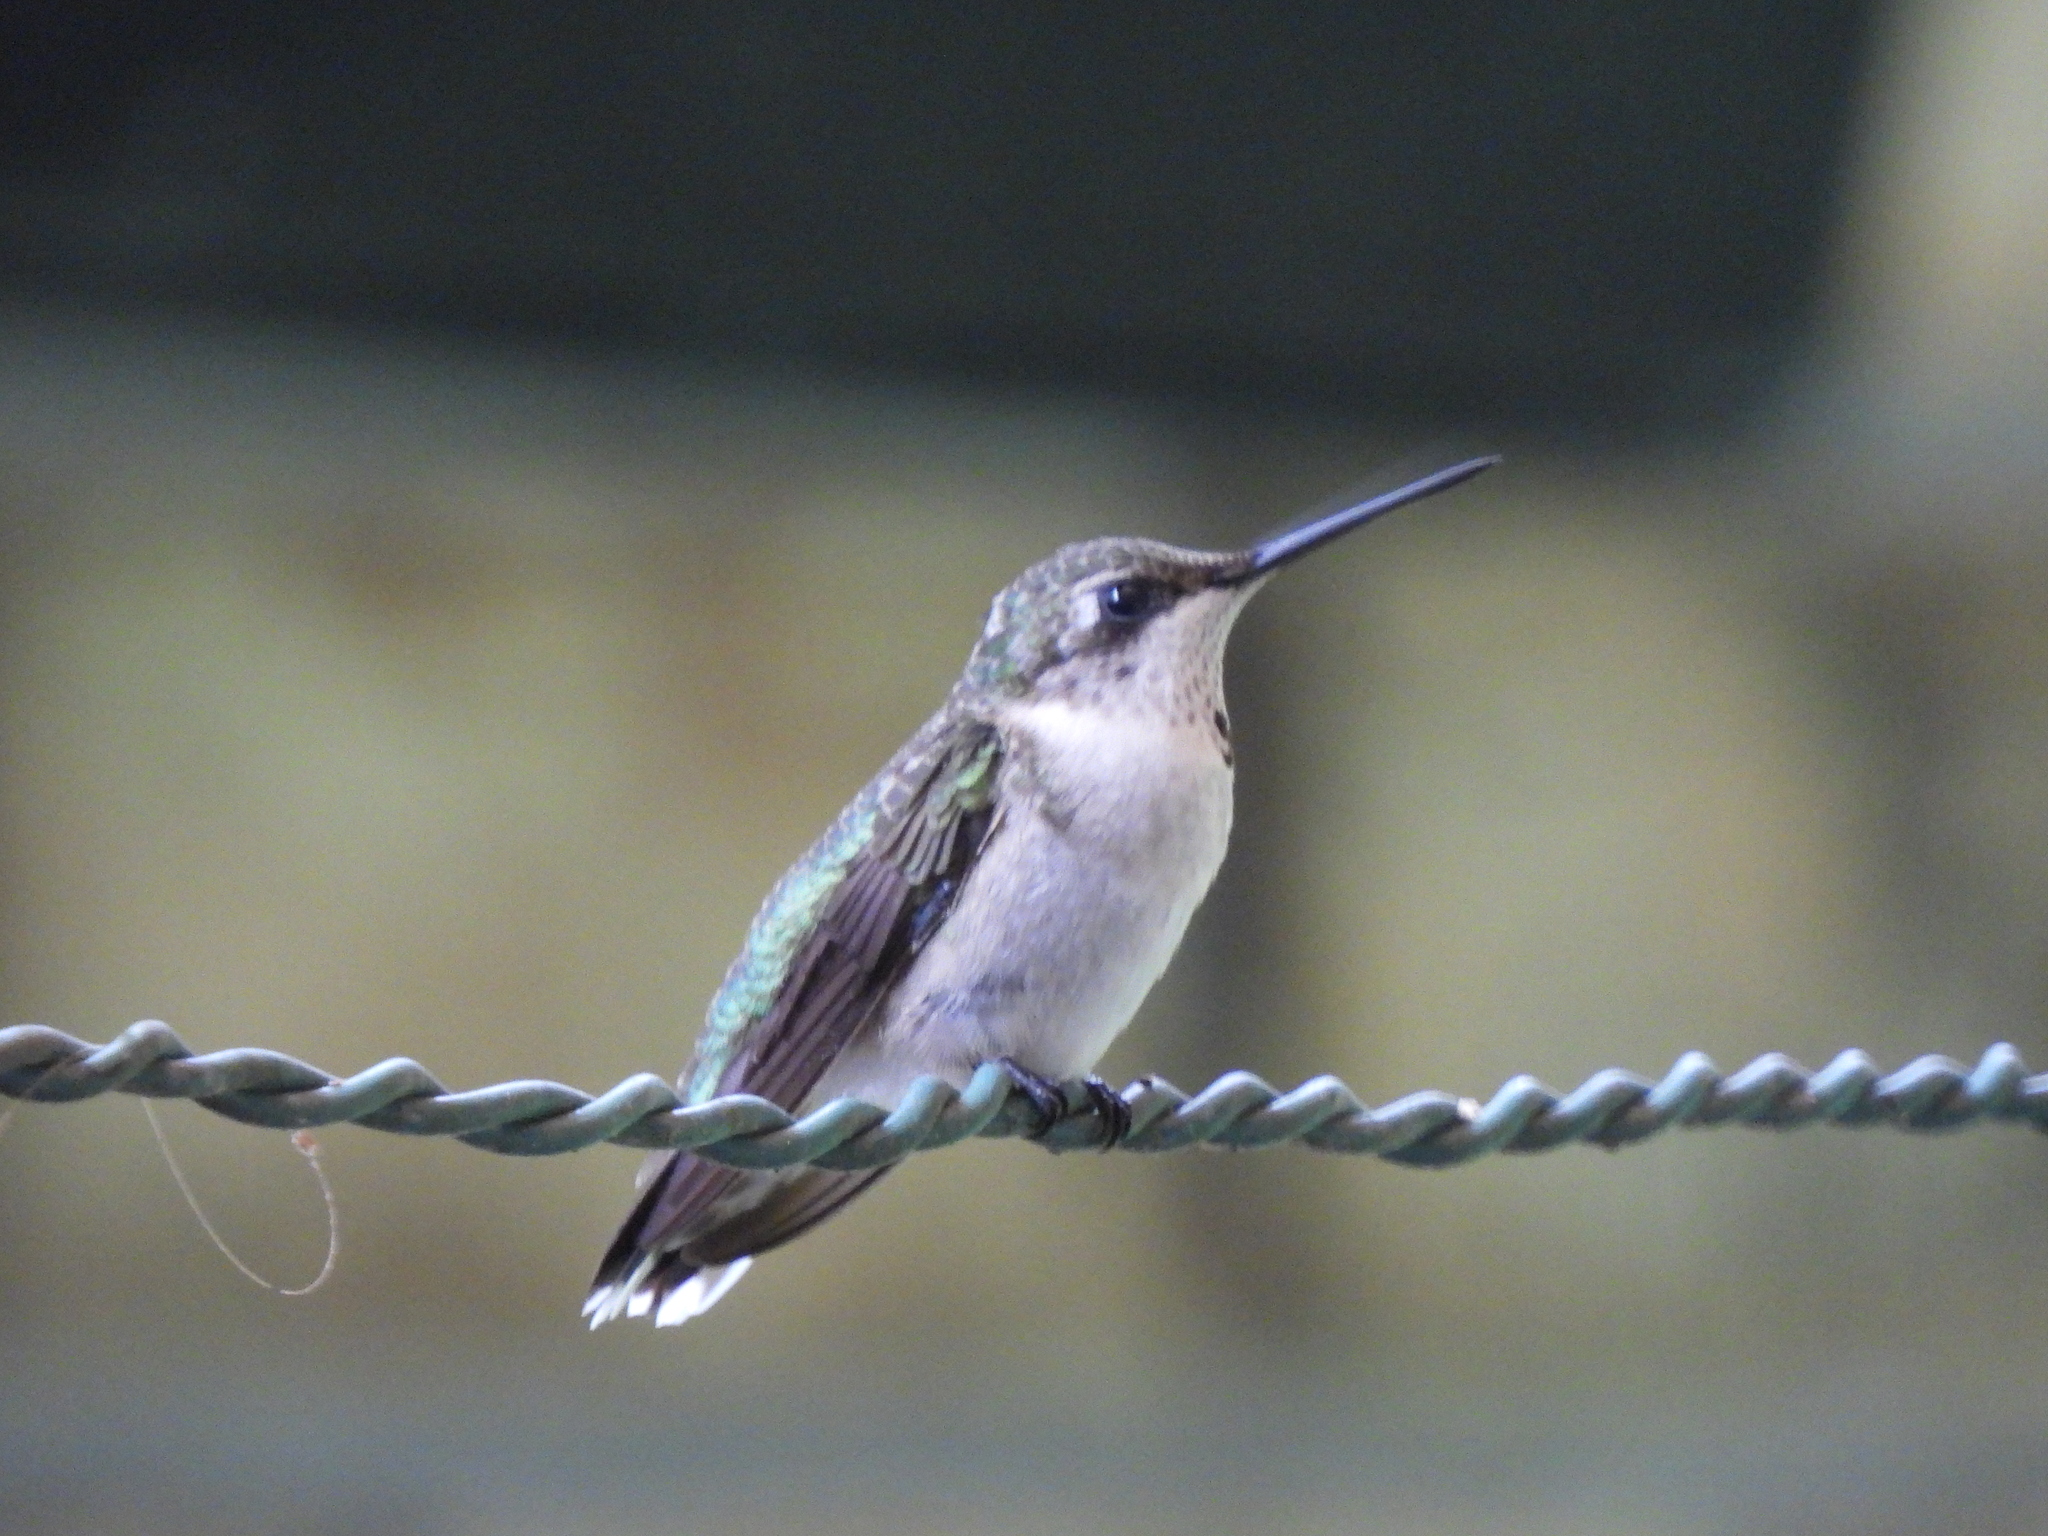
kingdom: Animalia
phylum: Chordata
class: Aves
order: Apodiformes
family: Trochilidae
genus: Archilochus
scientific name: Archilochus colubris
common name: Ruby-throated hummingbird
